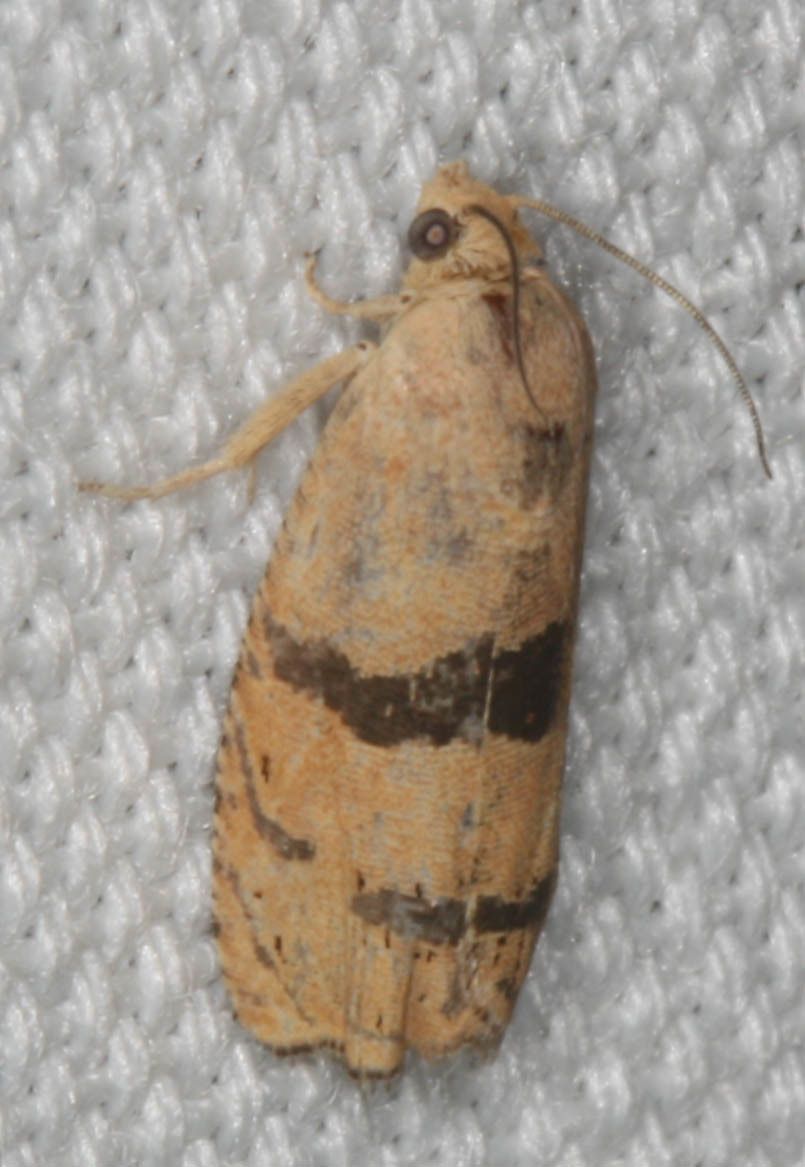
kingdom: Animalia
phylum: Arthropoda
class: Insecta
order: Lepidoptera
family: Tortricidae
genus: Cydia
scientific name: Cydia latiferreana
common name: Filbertworm moth
